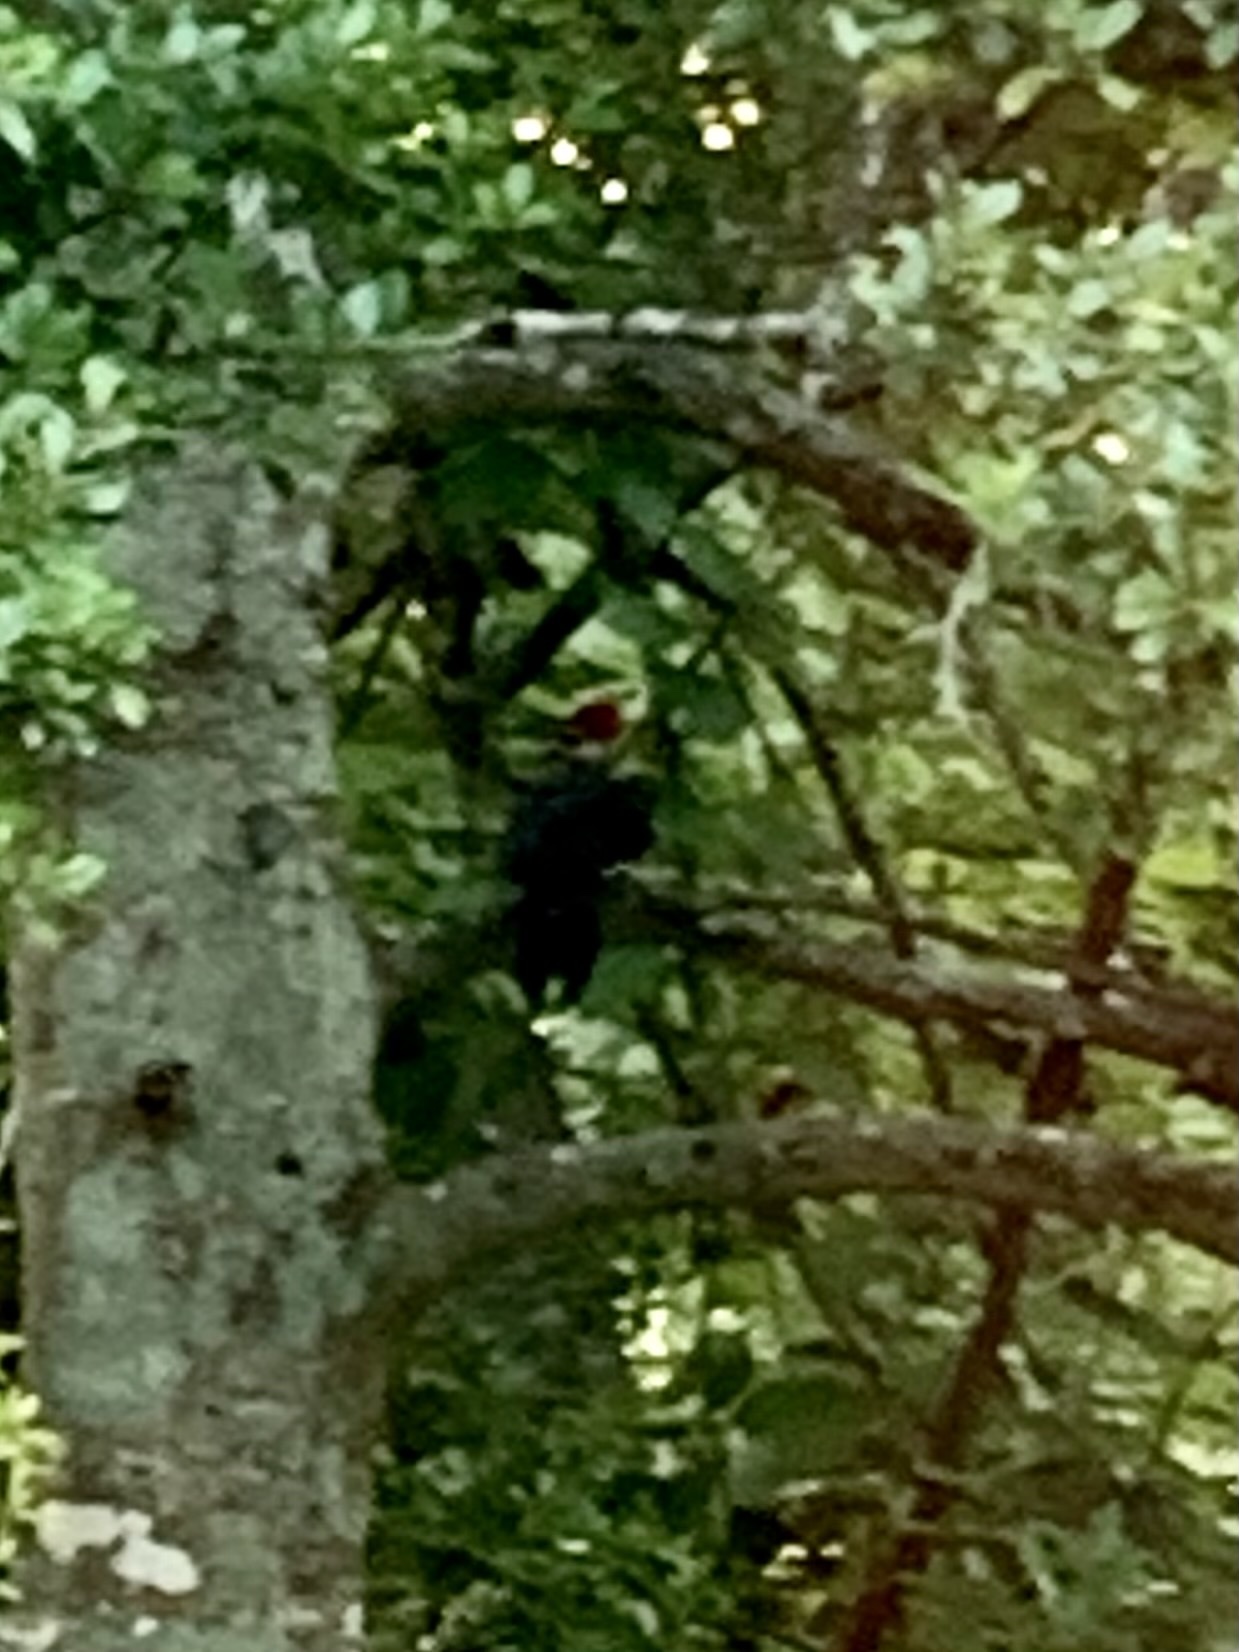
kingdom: Animalia
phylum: Chordata
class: Aves
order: Piciformes
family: Picidae
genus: Dryocopus
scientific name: Dryocopus pileatus
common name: Pileated woodpecker
